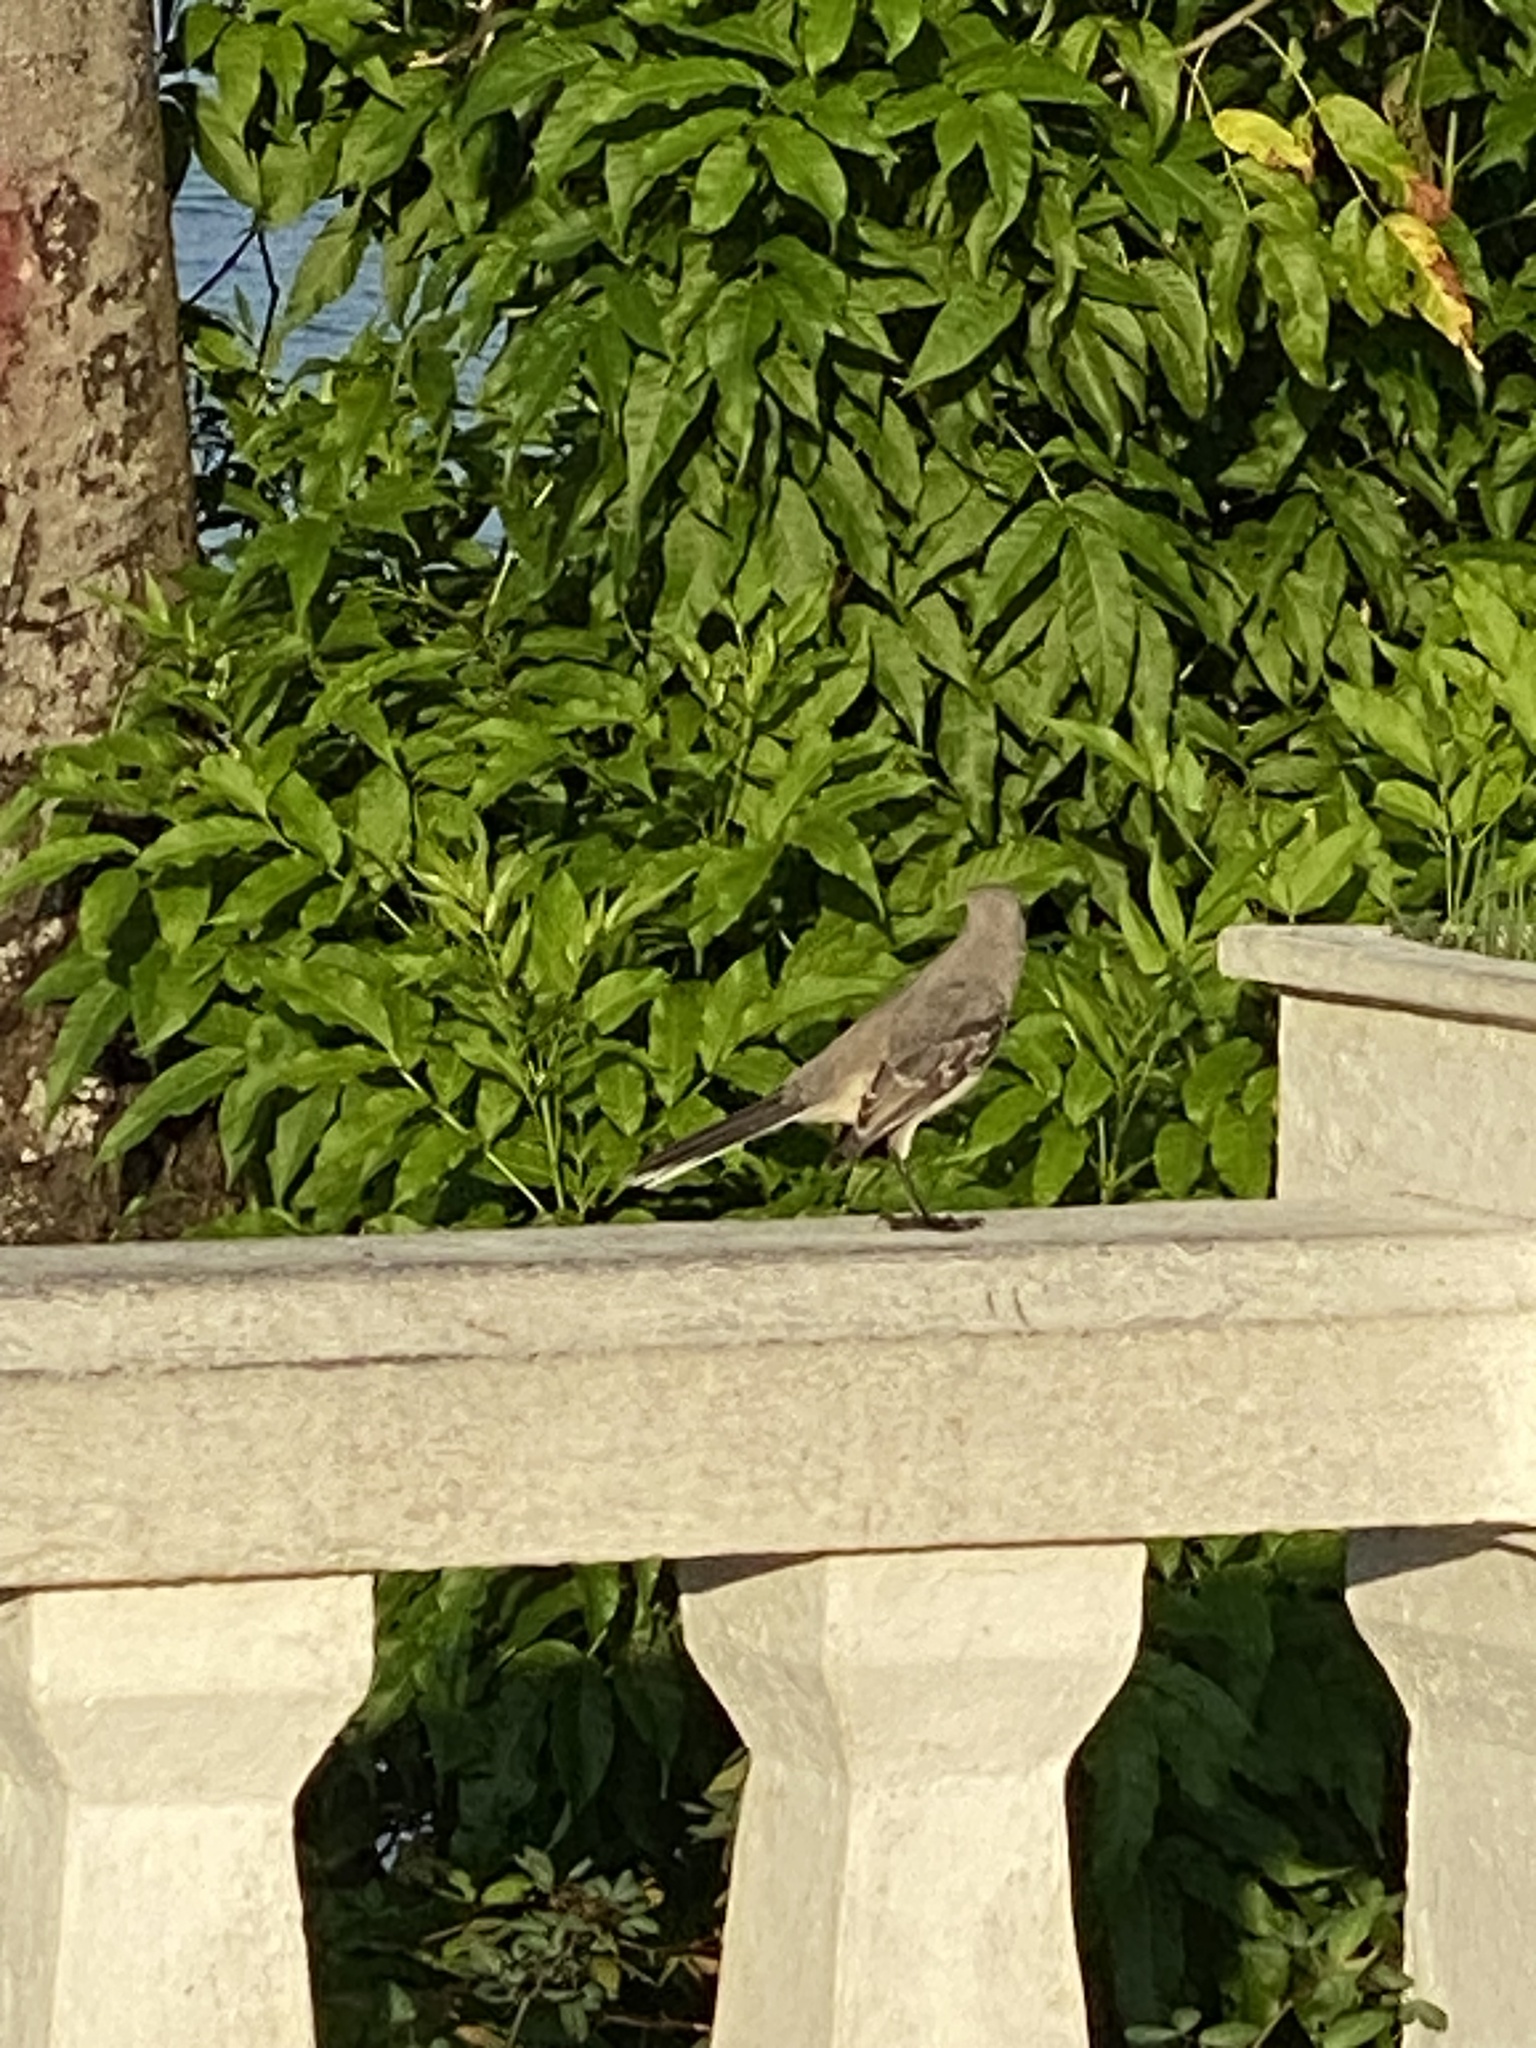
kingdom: Animalia
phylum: Chordata
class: Aves
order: Passeriformes
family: Mimidae
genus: Mimus
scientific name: Mimus gilvus
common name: Tropical mockingbird
